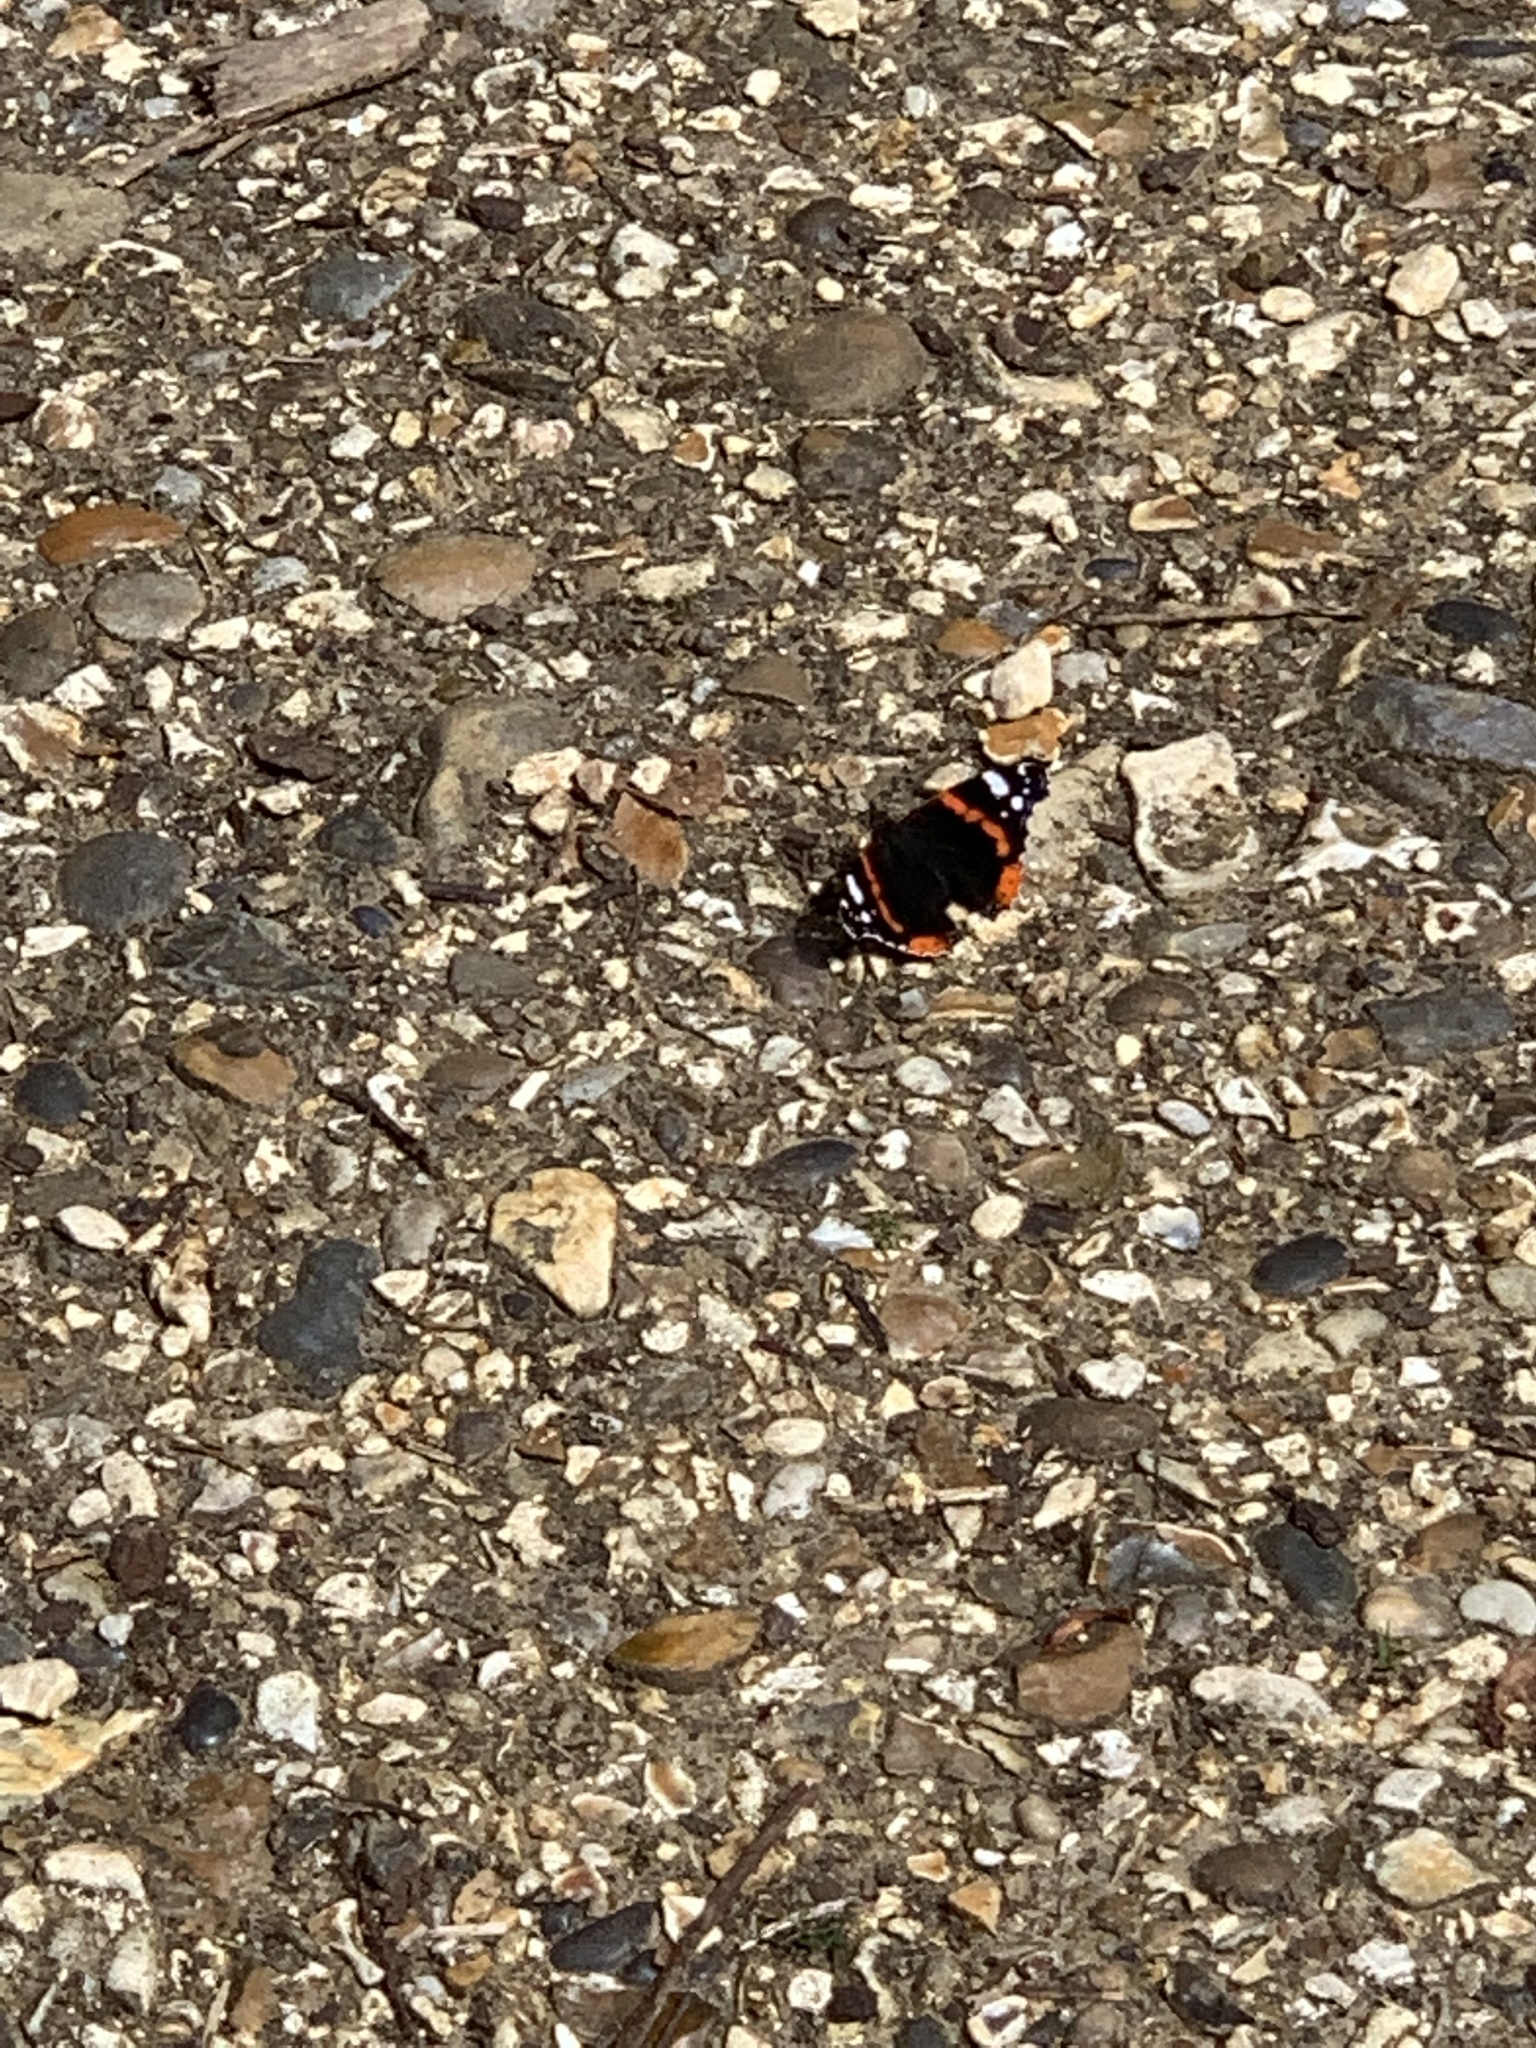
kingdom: Animalia
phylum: Arthropoda
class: Insecta
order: Lepidoptera
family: Nymphalidae
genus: Vanessa
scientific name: Vanessa atalanta
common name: Red admiral
